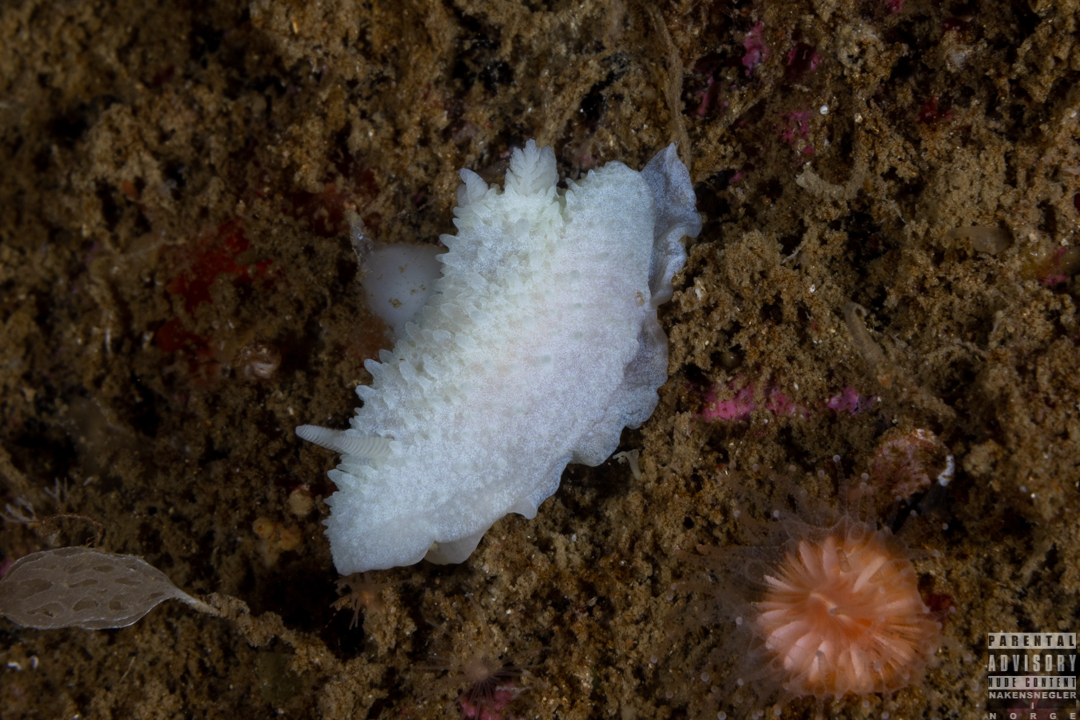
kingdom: Animalia
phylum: Mollusca
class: Gastropoda
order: Nudibranchia
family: Cadlinidae
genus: Aldisa
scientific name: Aldisa zetlandica
